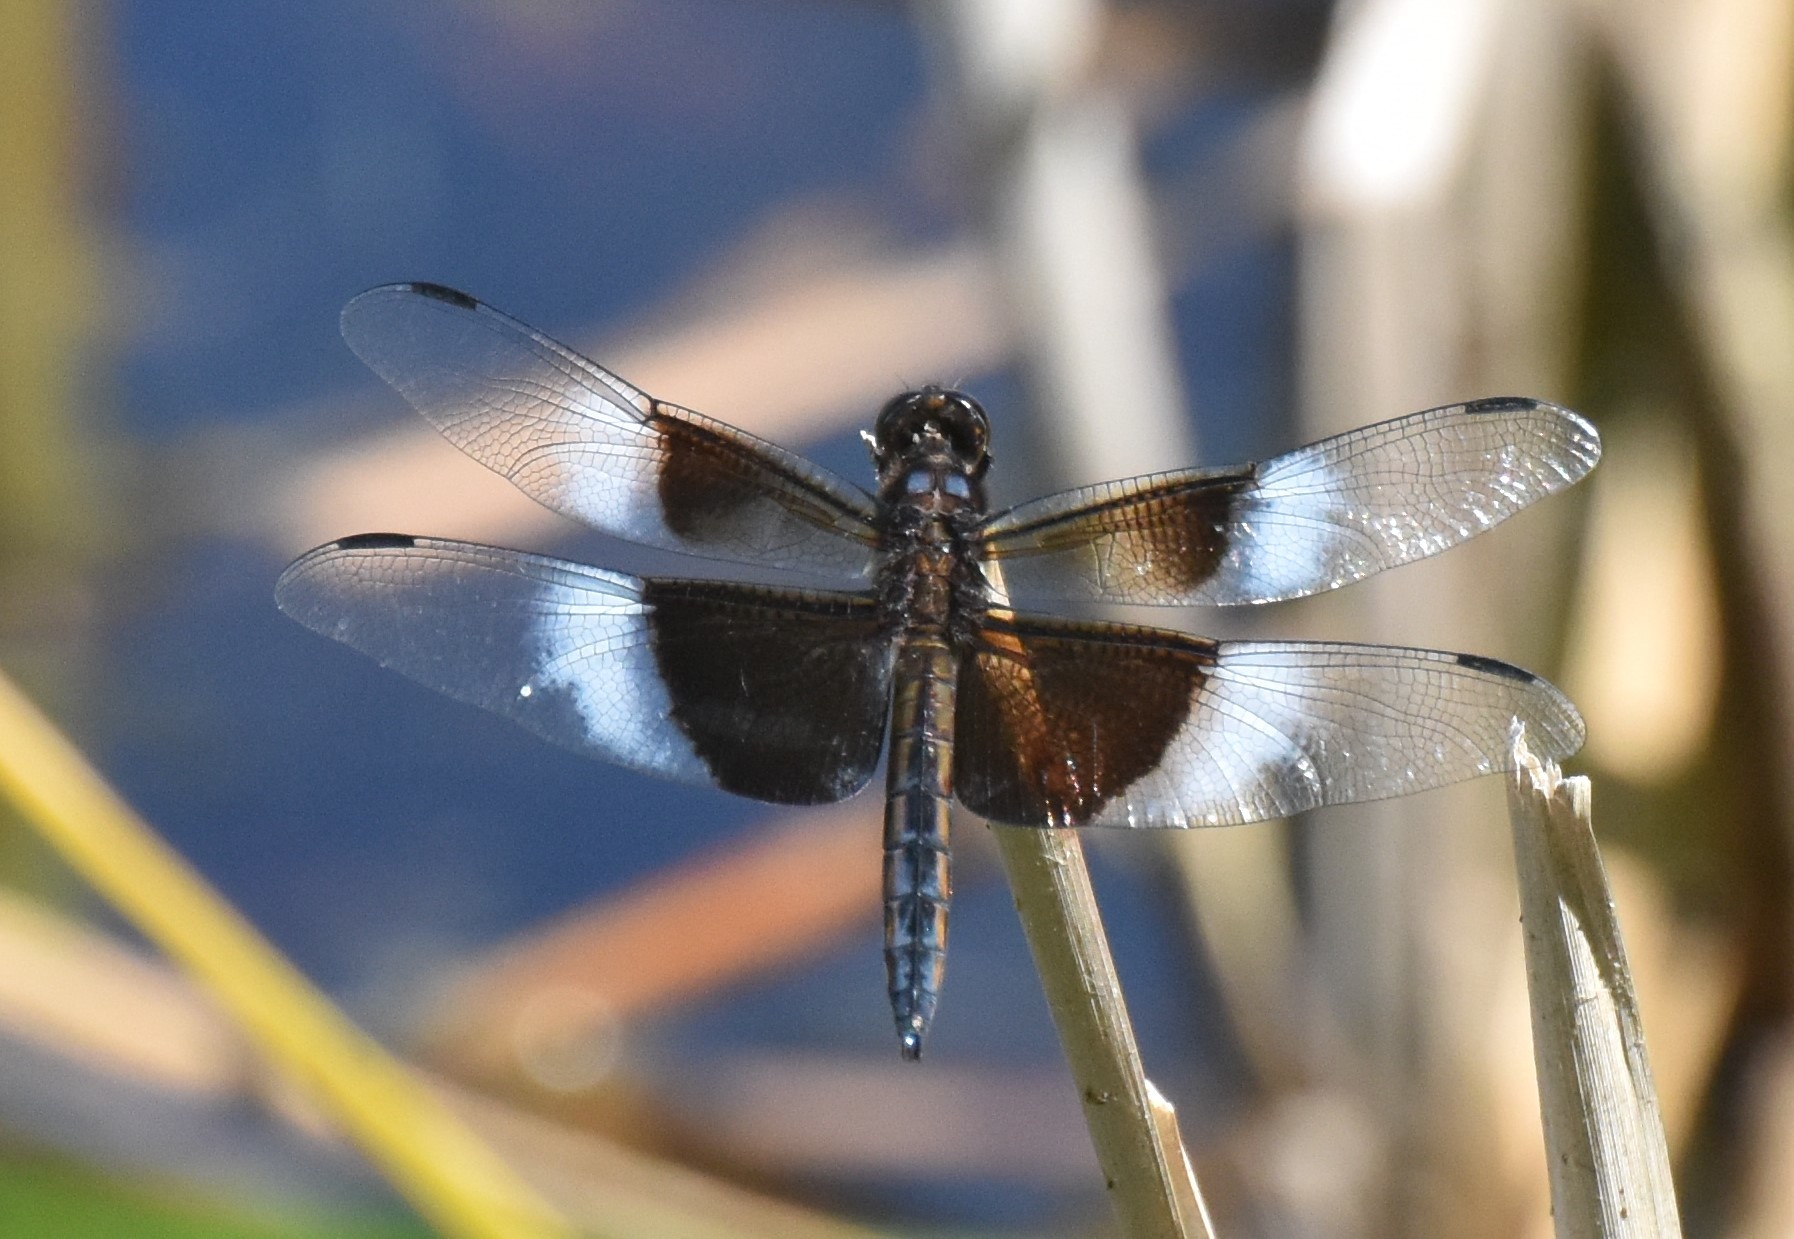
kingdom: Animalia
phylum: Arthropoda
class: Insecta
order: Odonata
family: Libellulidae
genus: Libellula
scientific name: Libellula luctuosa
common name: Widow skimmer
